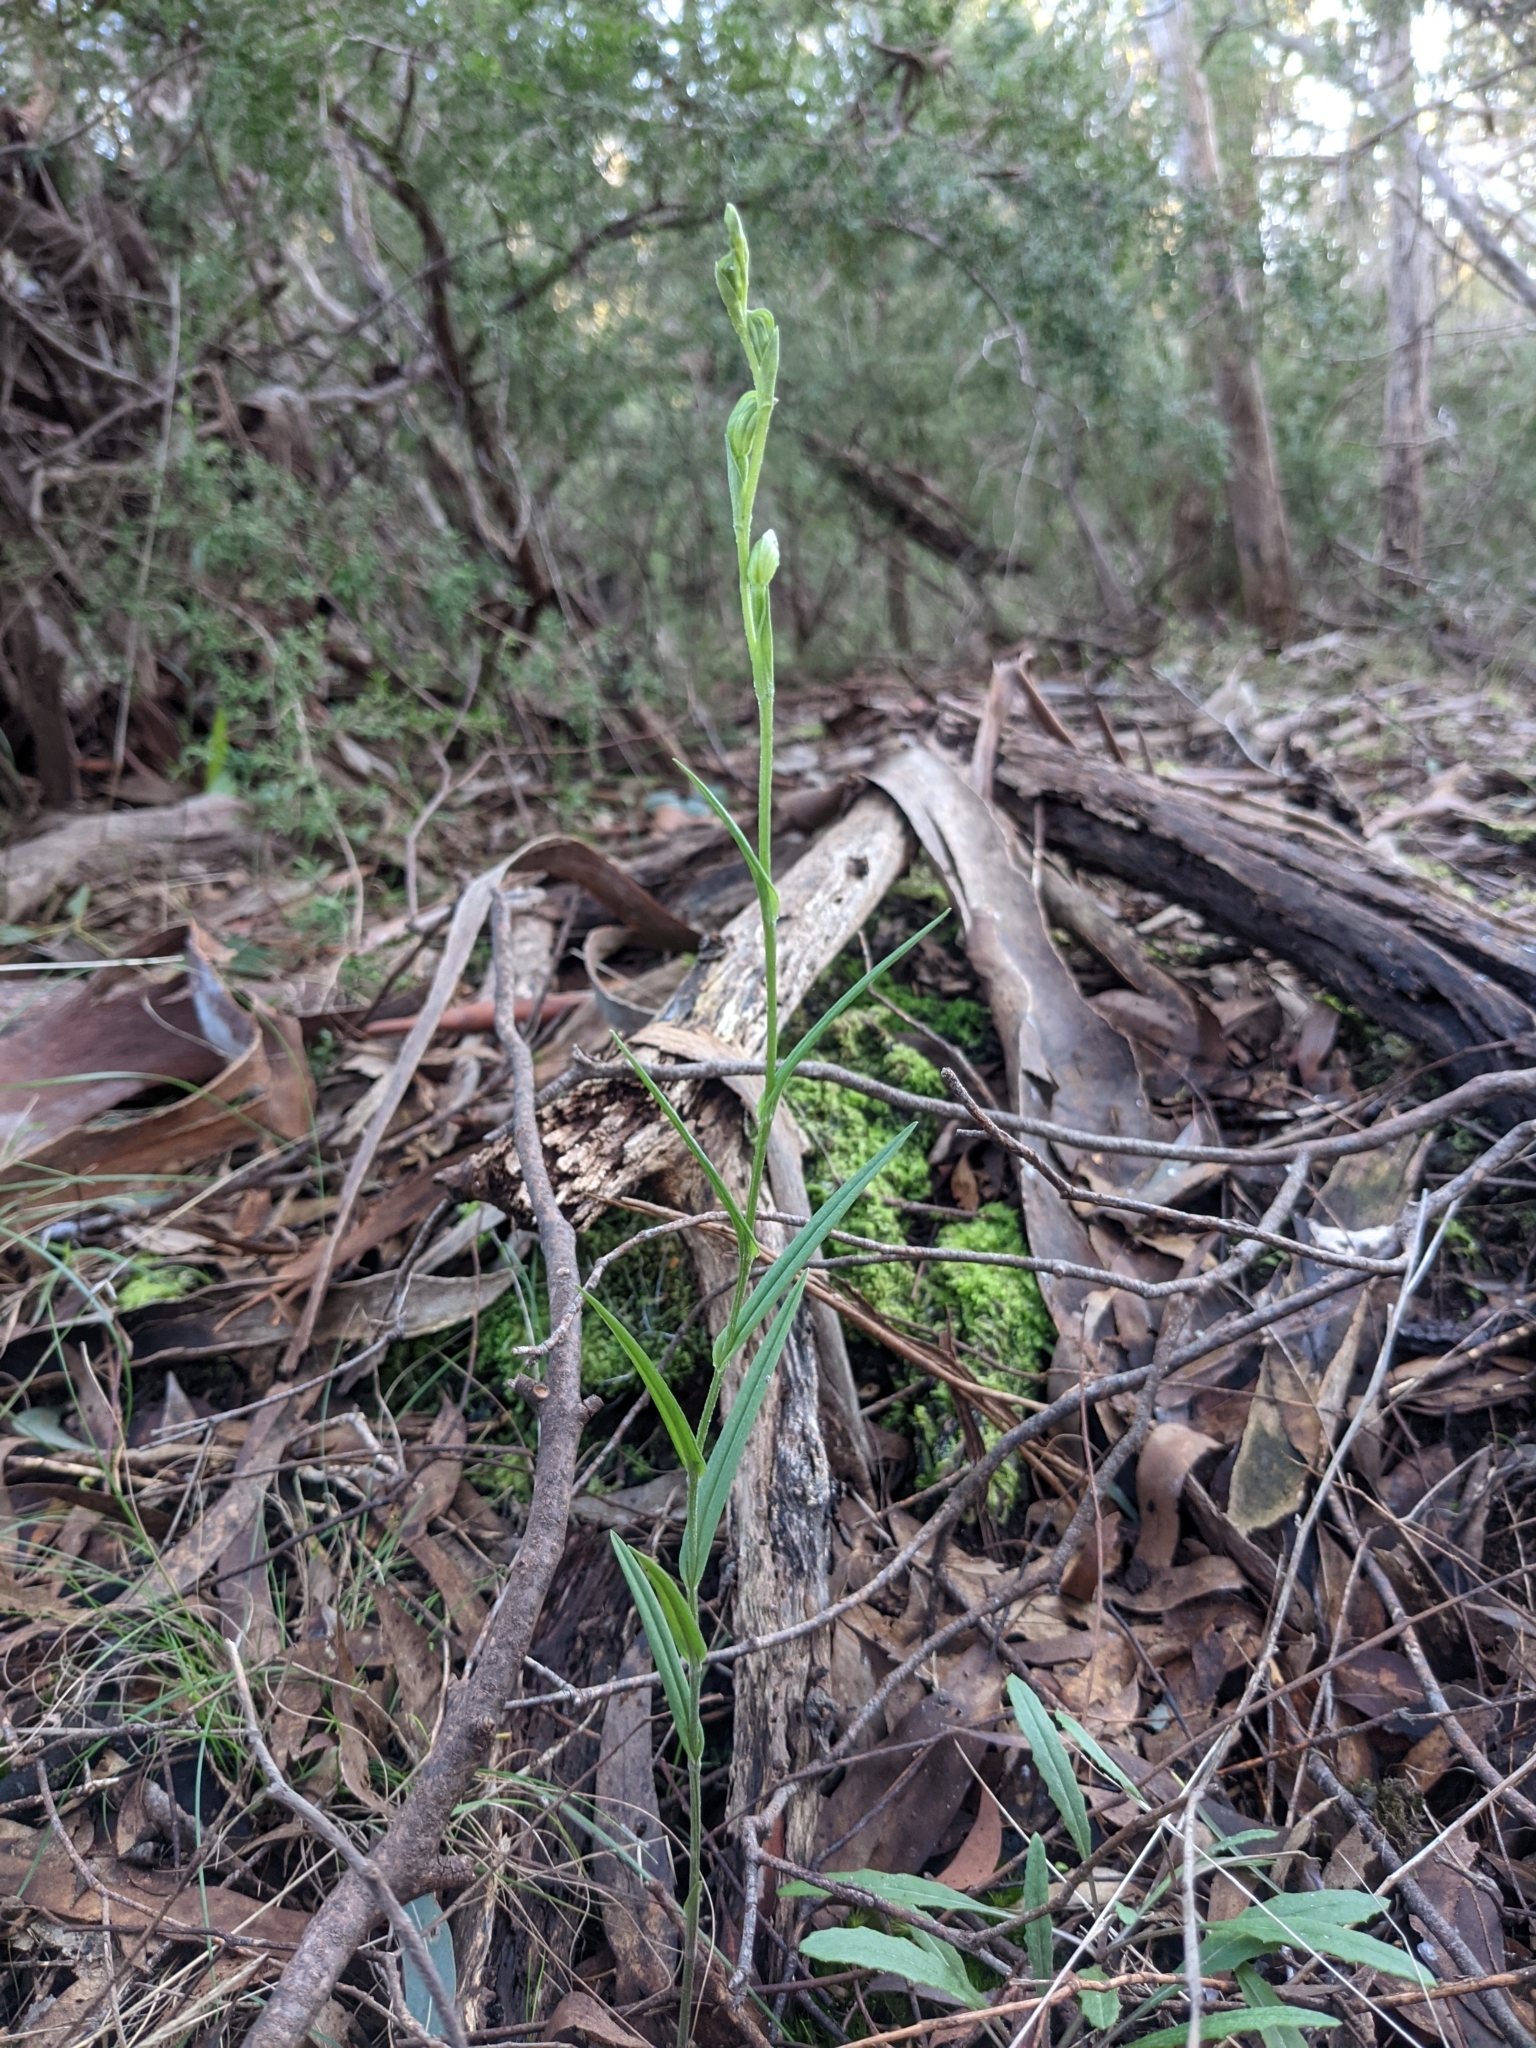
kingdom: Plantae
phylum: Tracheophyta
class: Liliopsida
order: Asparagales
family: Orchidaceae
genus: Pterostylis
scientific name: Pterostylis melagramma
